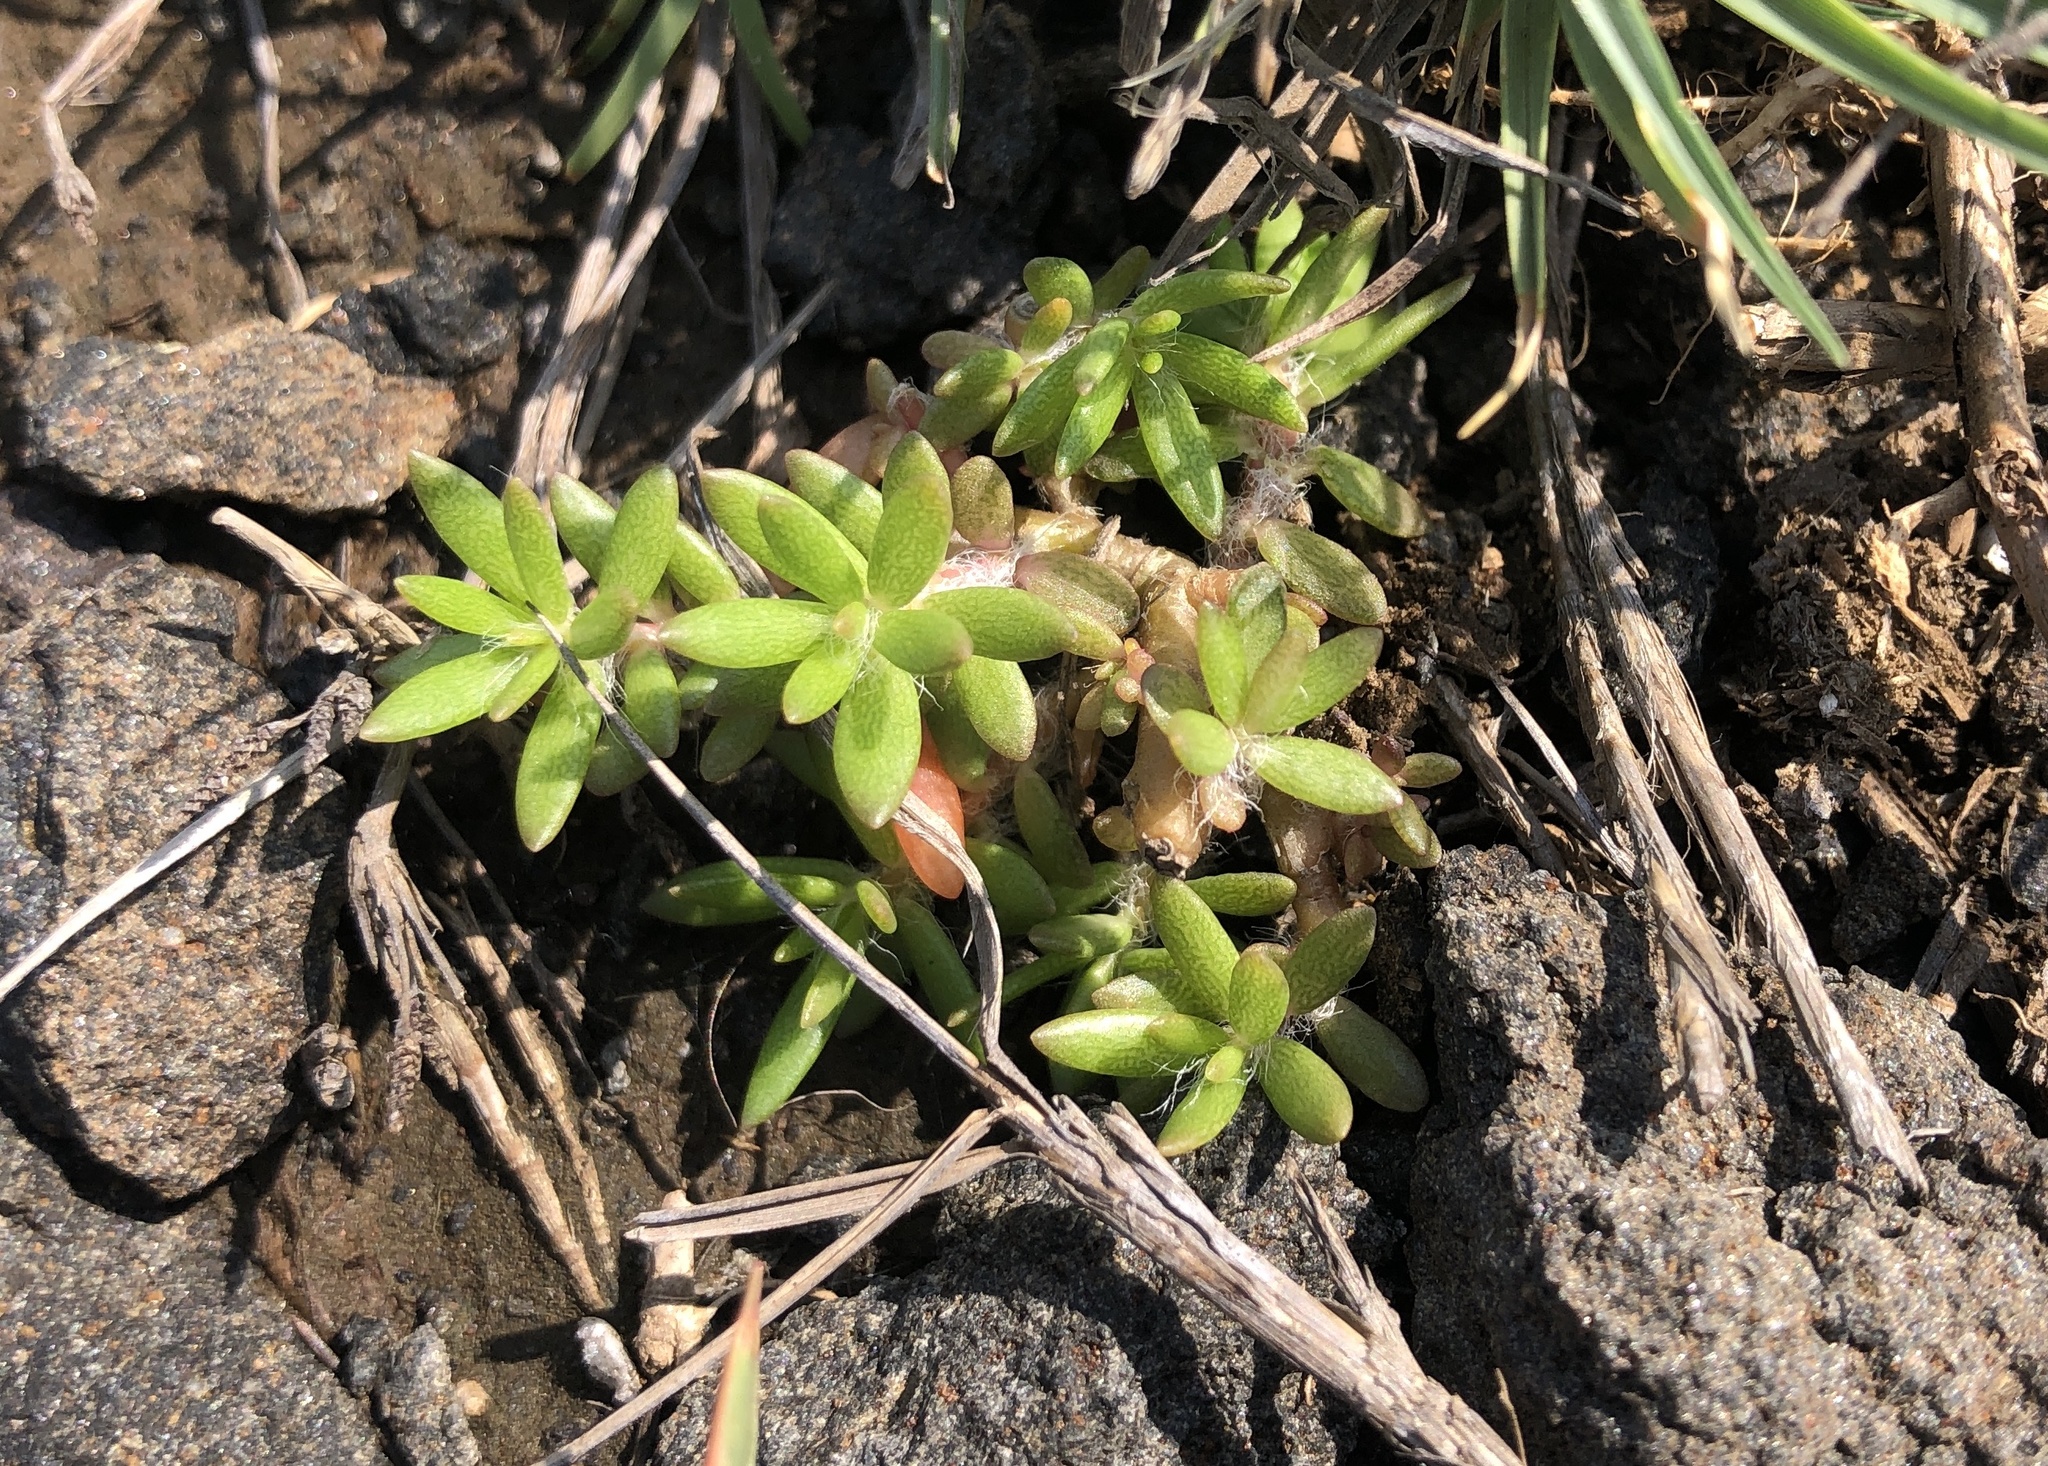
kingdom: Plantae
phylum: Tracheophyta
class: Magnoliopsida
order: Caryophyllales
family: Portulacaceae
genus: Portulaca
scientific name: Portulaca pilosa
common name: Kiss me quick
